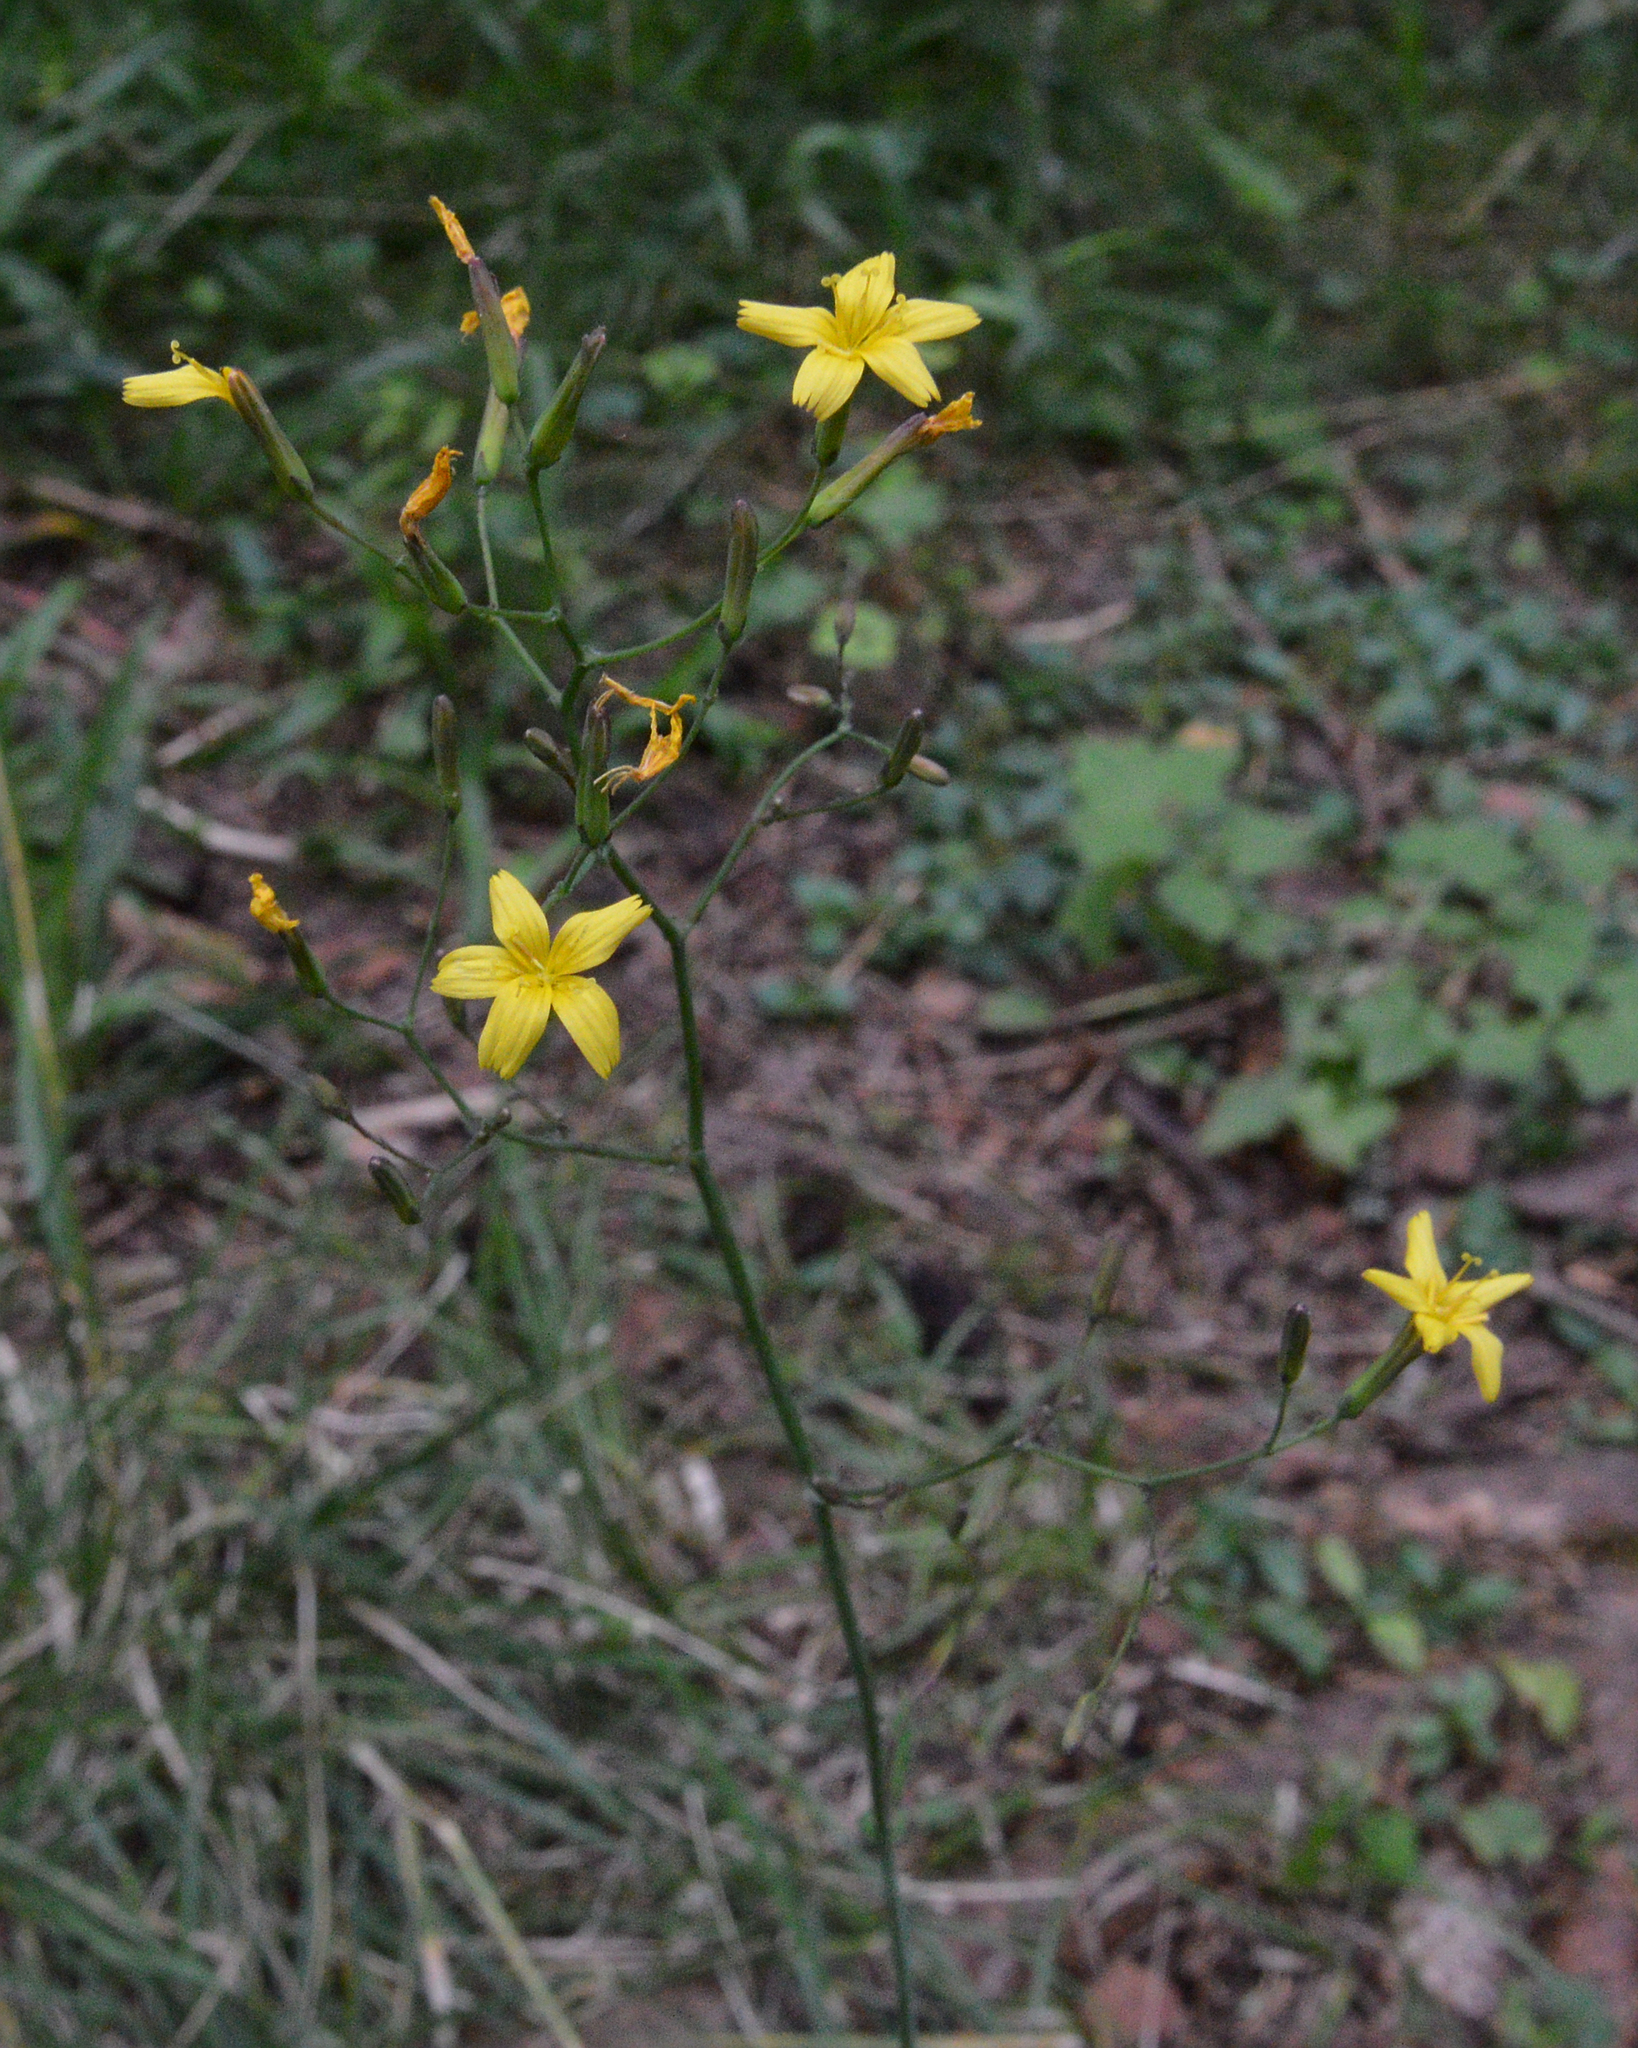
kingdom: Plantae
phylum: Tracheophyta
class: Magnoliopsida
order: Asterales
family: Asteraceae
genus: Mycelis
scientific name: Mycelis muralis
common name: Wall lettuce
